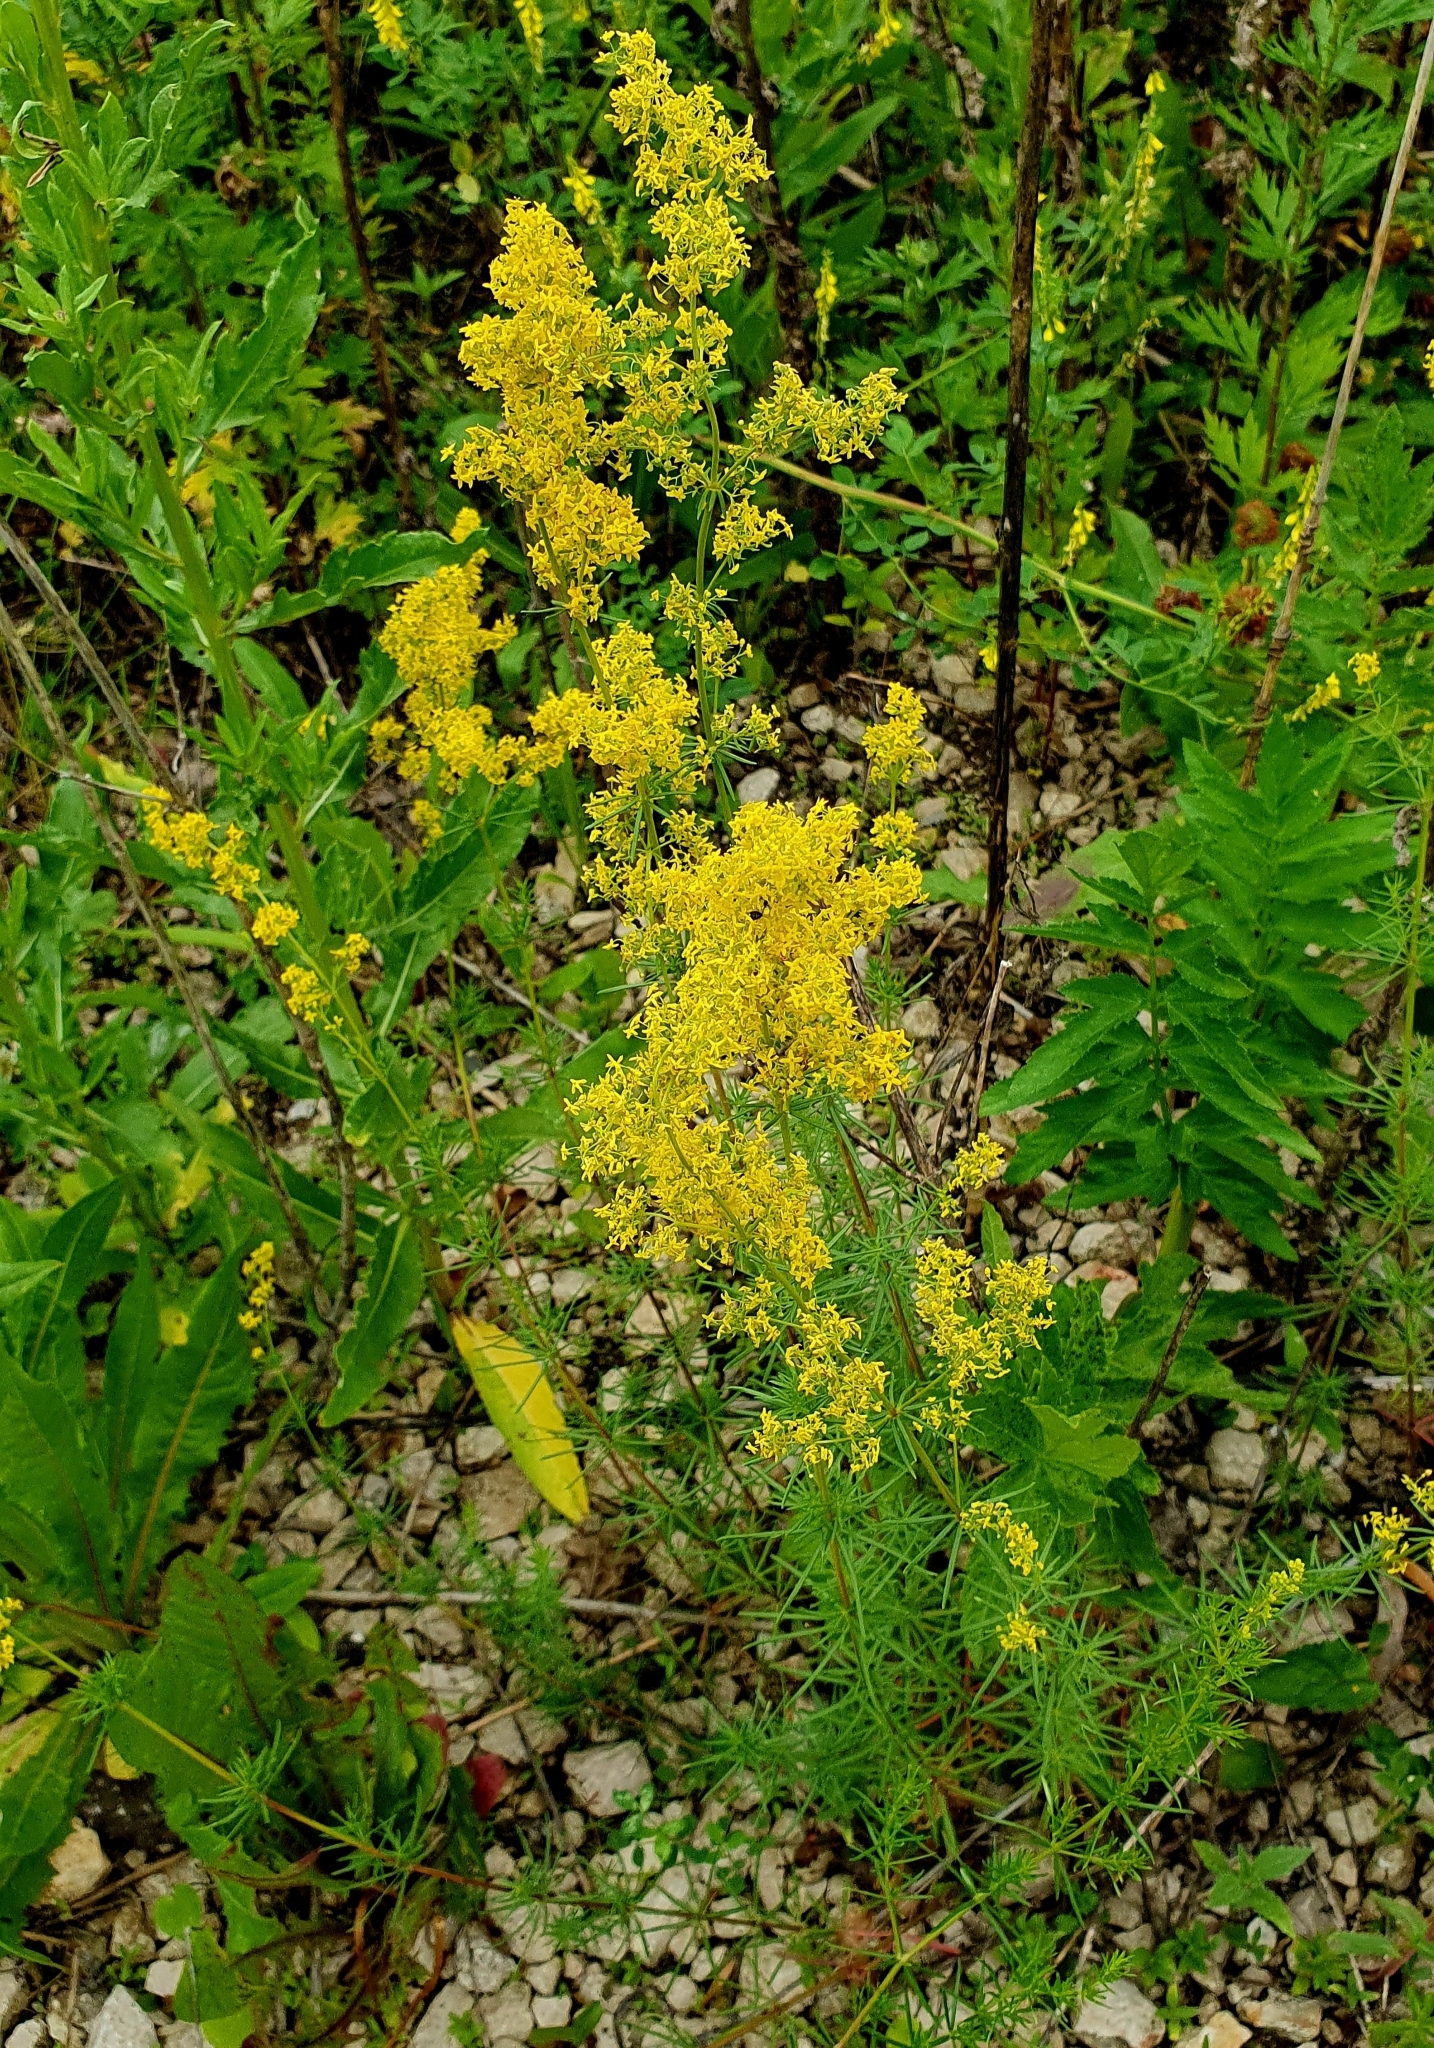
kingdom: Plantae
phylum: Tracheophyta
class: Magnoliopsida
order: Gentianales
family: Rubiaceae
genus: Galium
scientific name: Galium verum
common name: Lady's bedstraw
